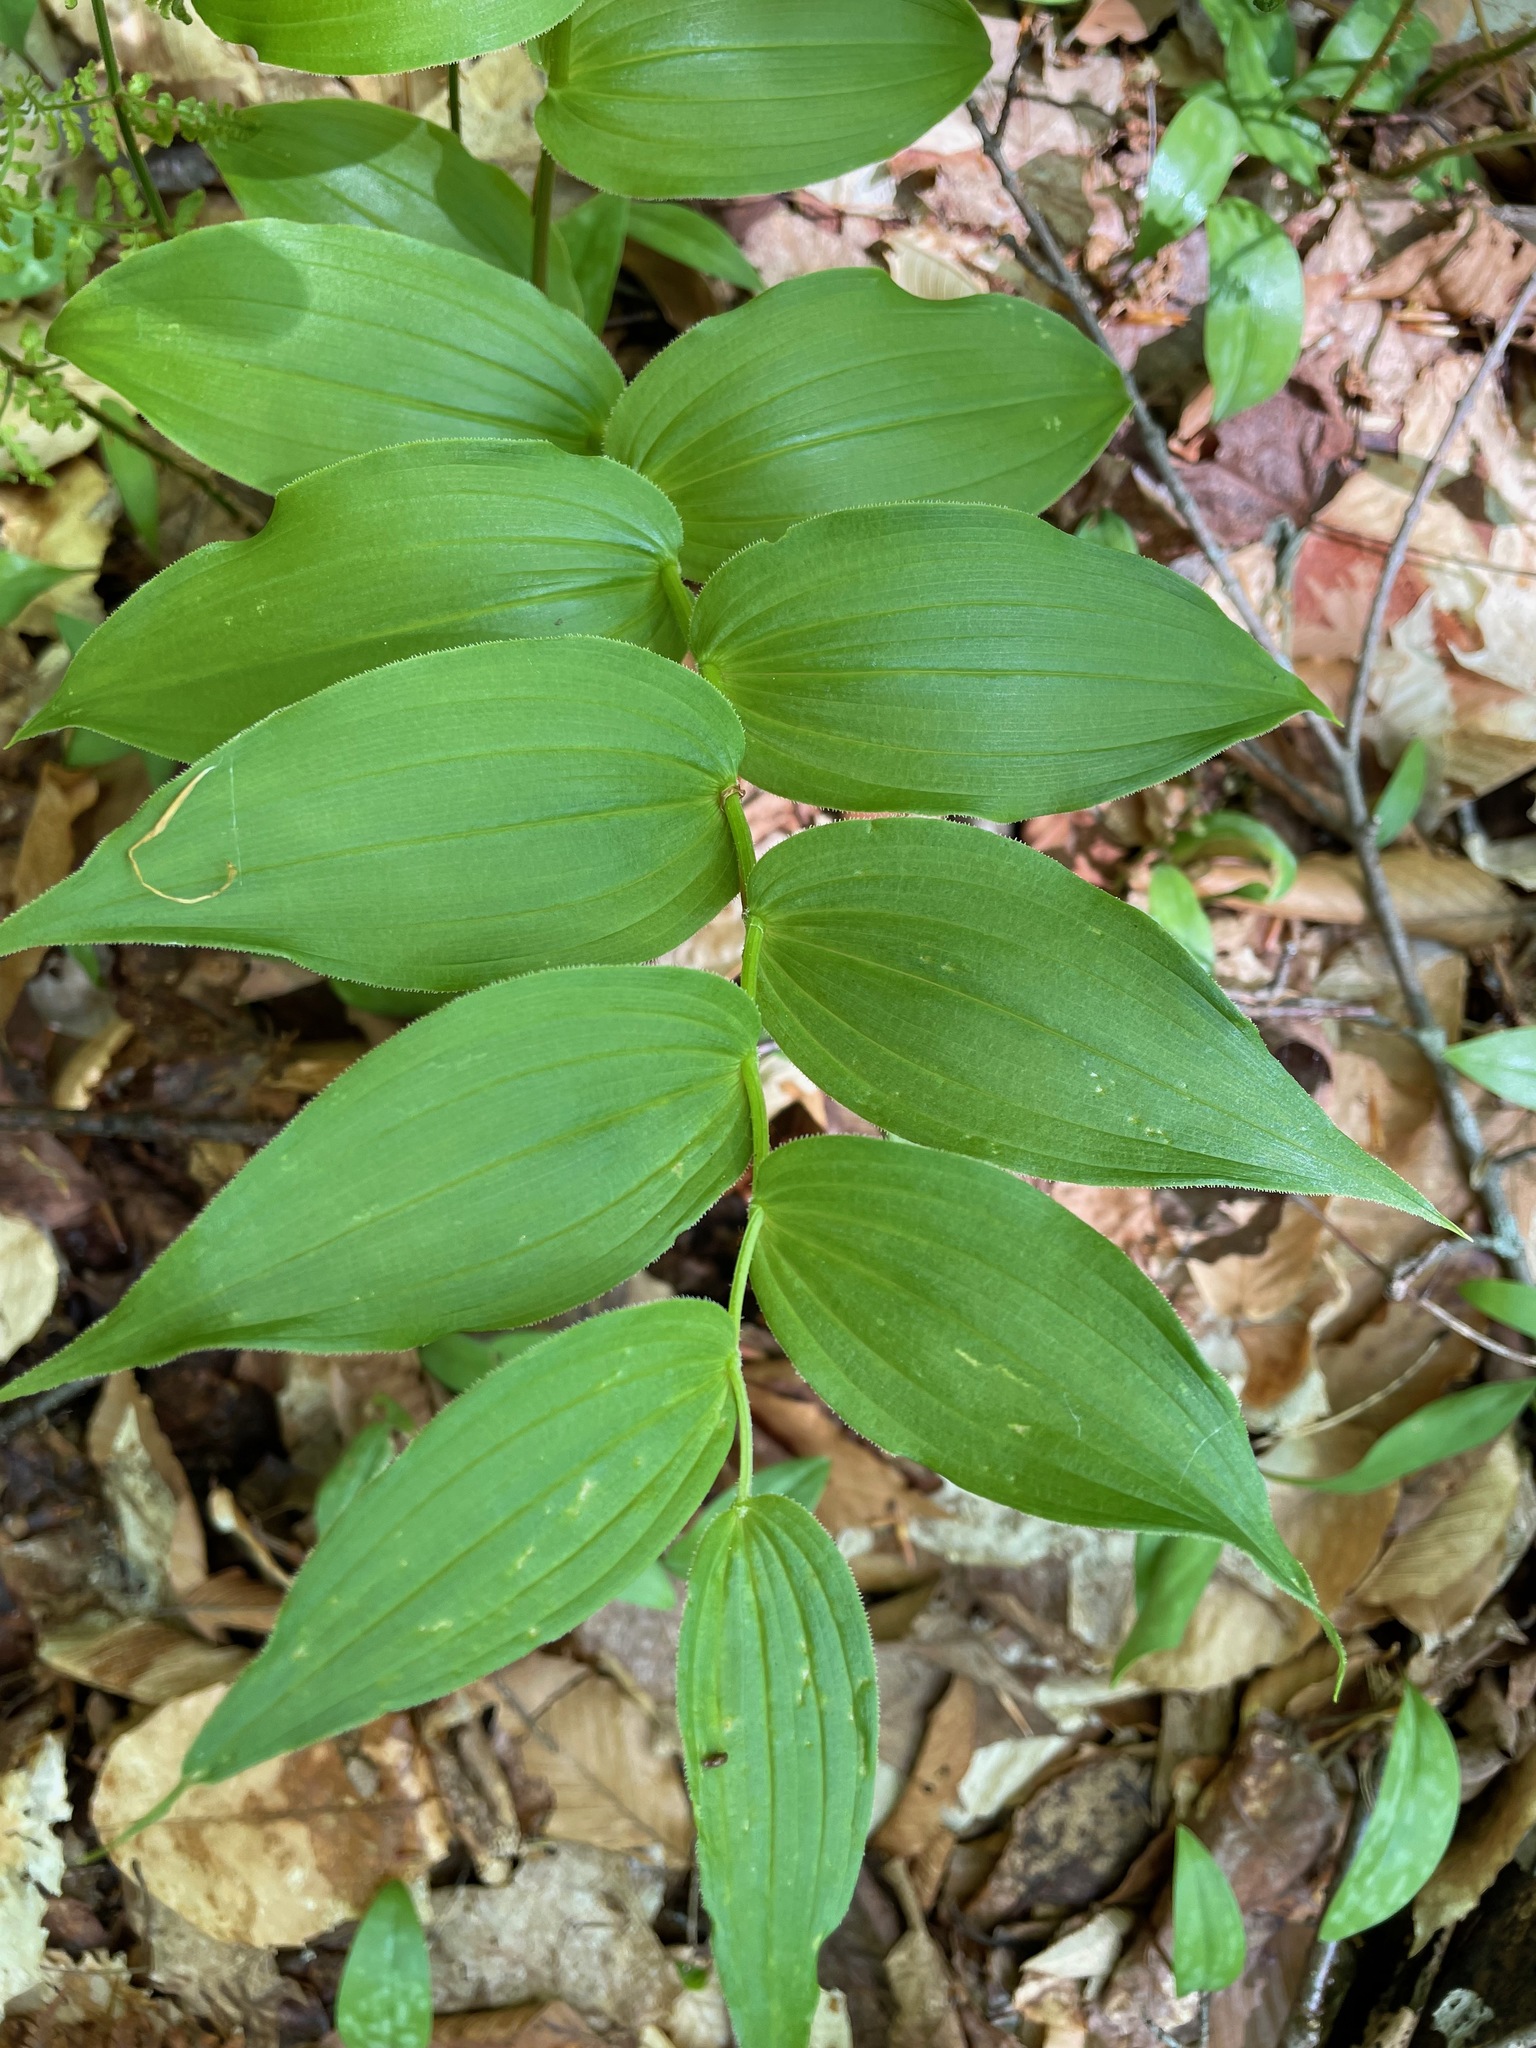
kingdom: Plantae
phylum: Tracheophyta
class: Liliopsida
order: Liliales
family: Liliaceae
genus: Streptopus
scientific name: Streptopus lanceolatus
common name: Rose mandarin
